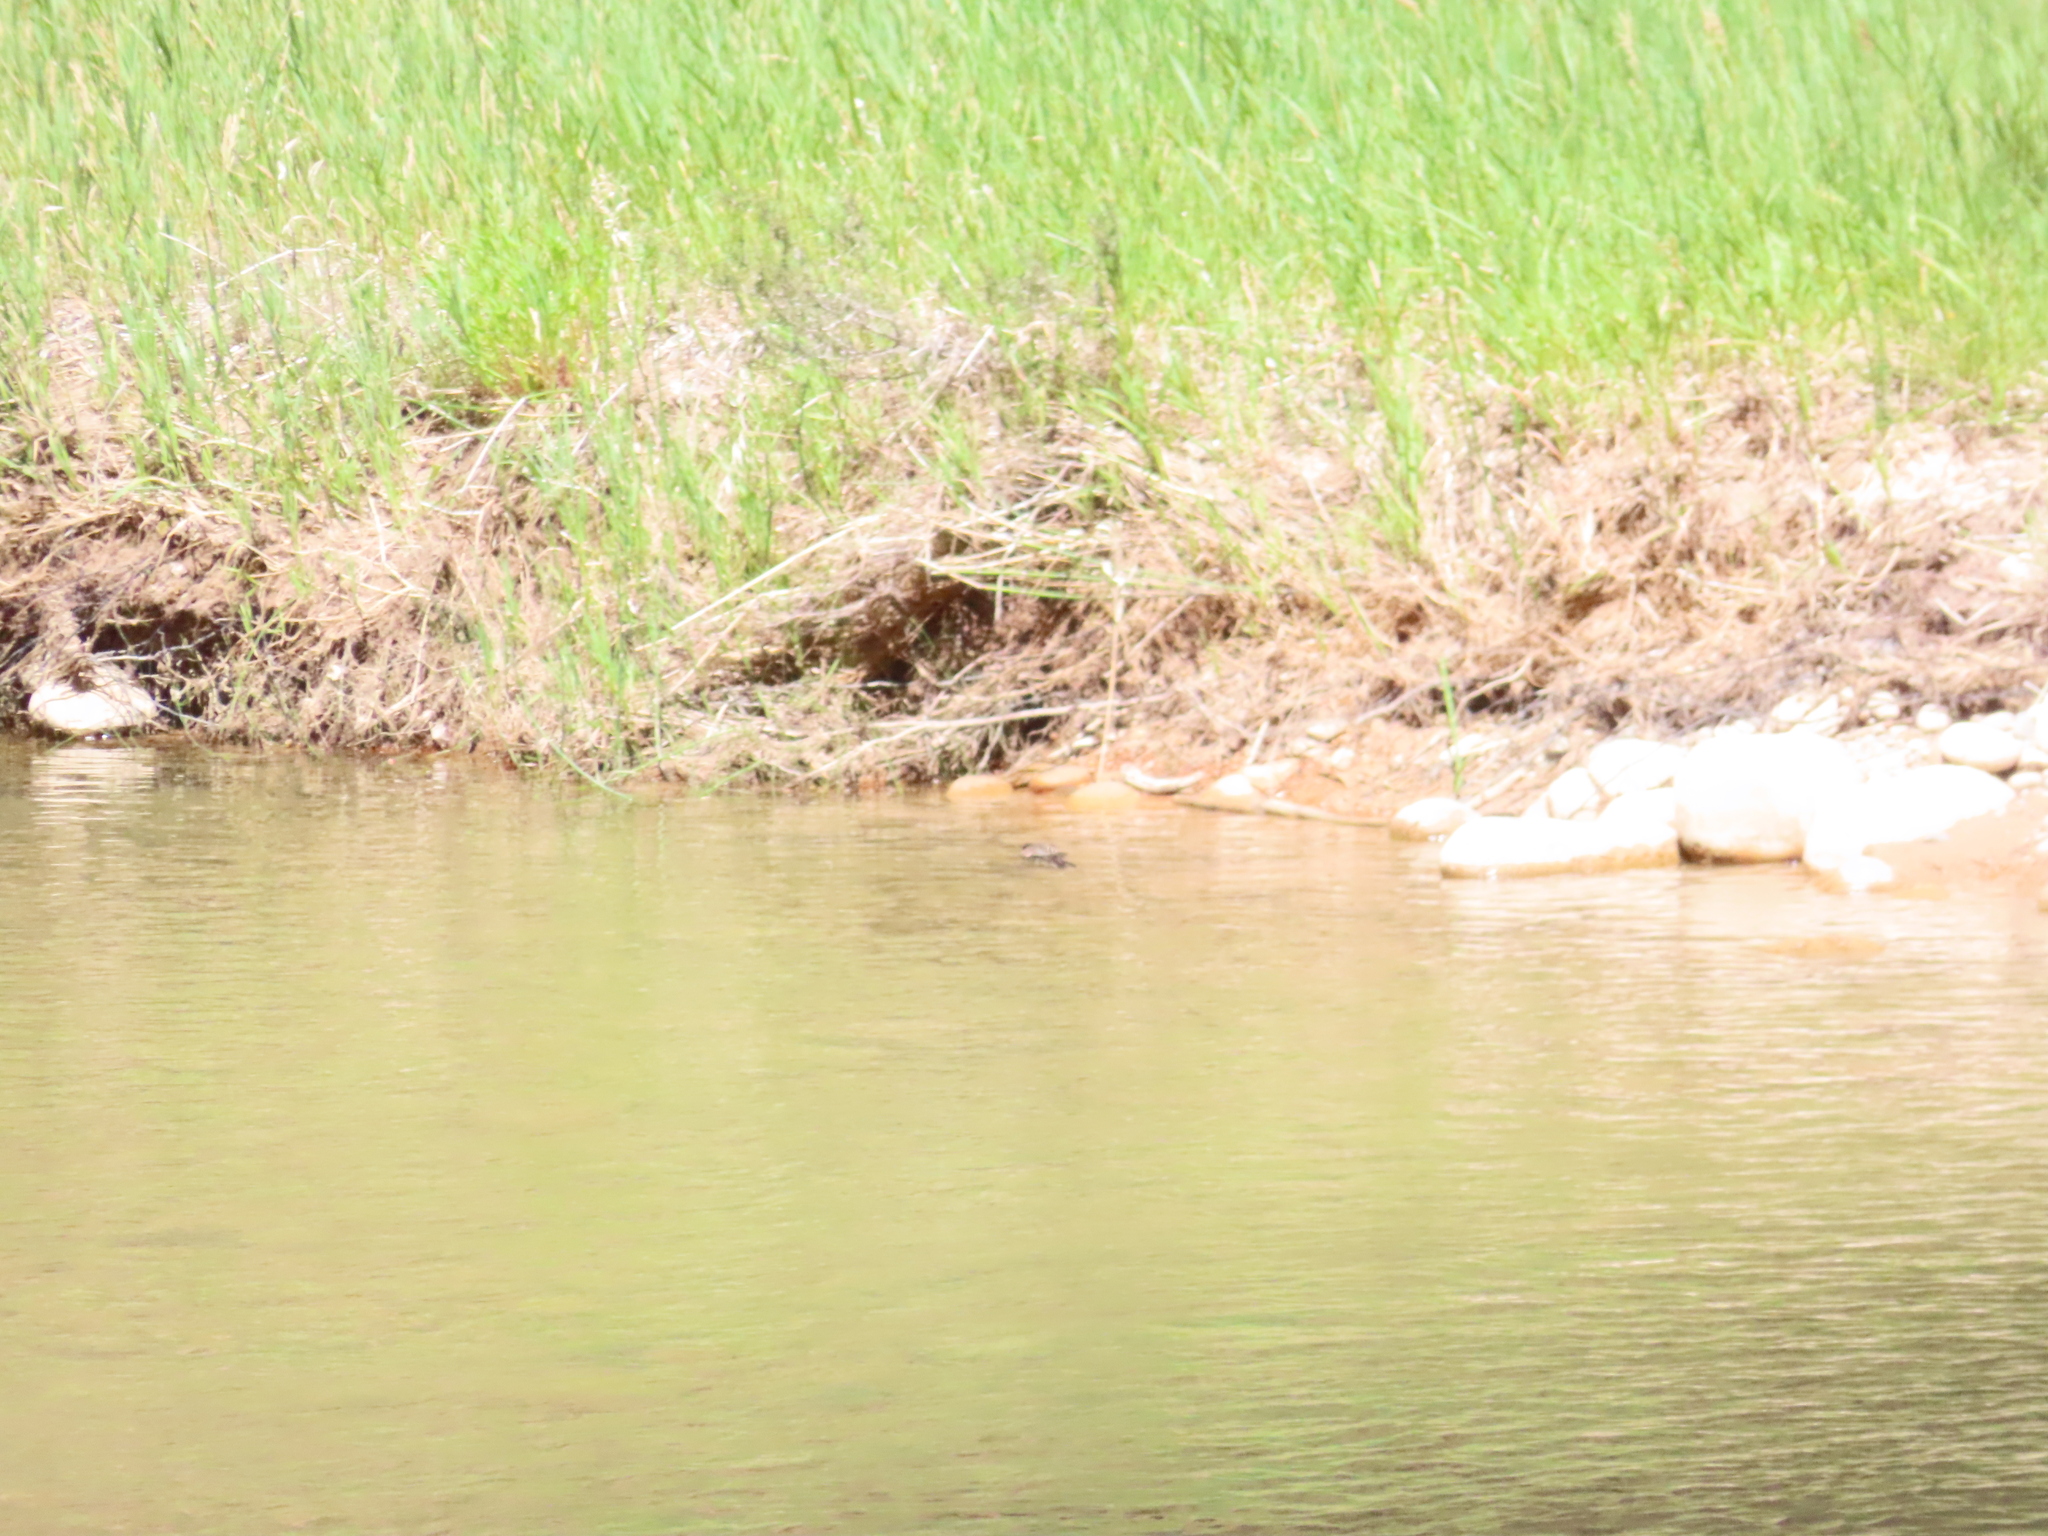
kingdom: Animalia
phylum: Chordata
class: Aves
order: Passeriformes
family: Tyrannidae
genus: Sayornis
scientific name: Sayornis nigricans
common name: Black phoebe
